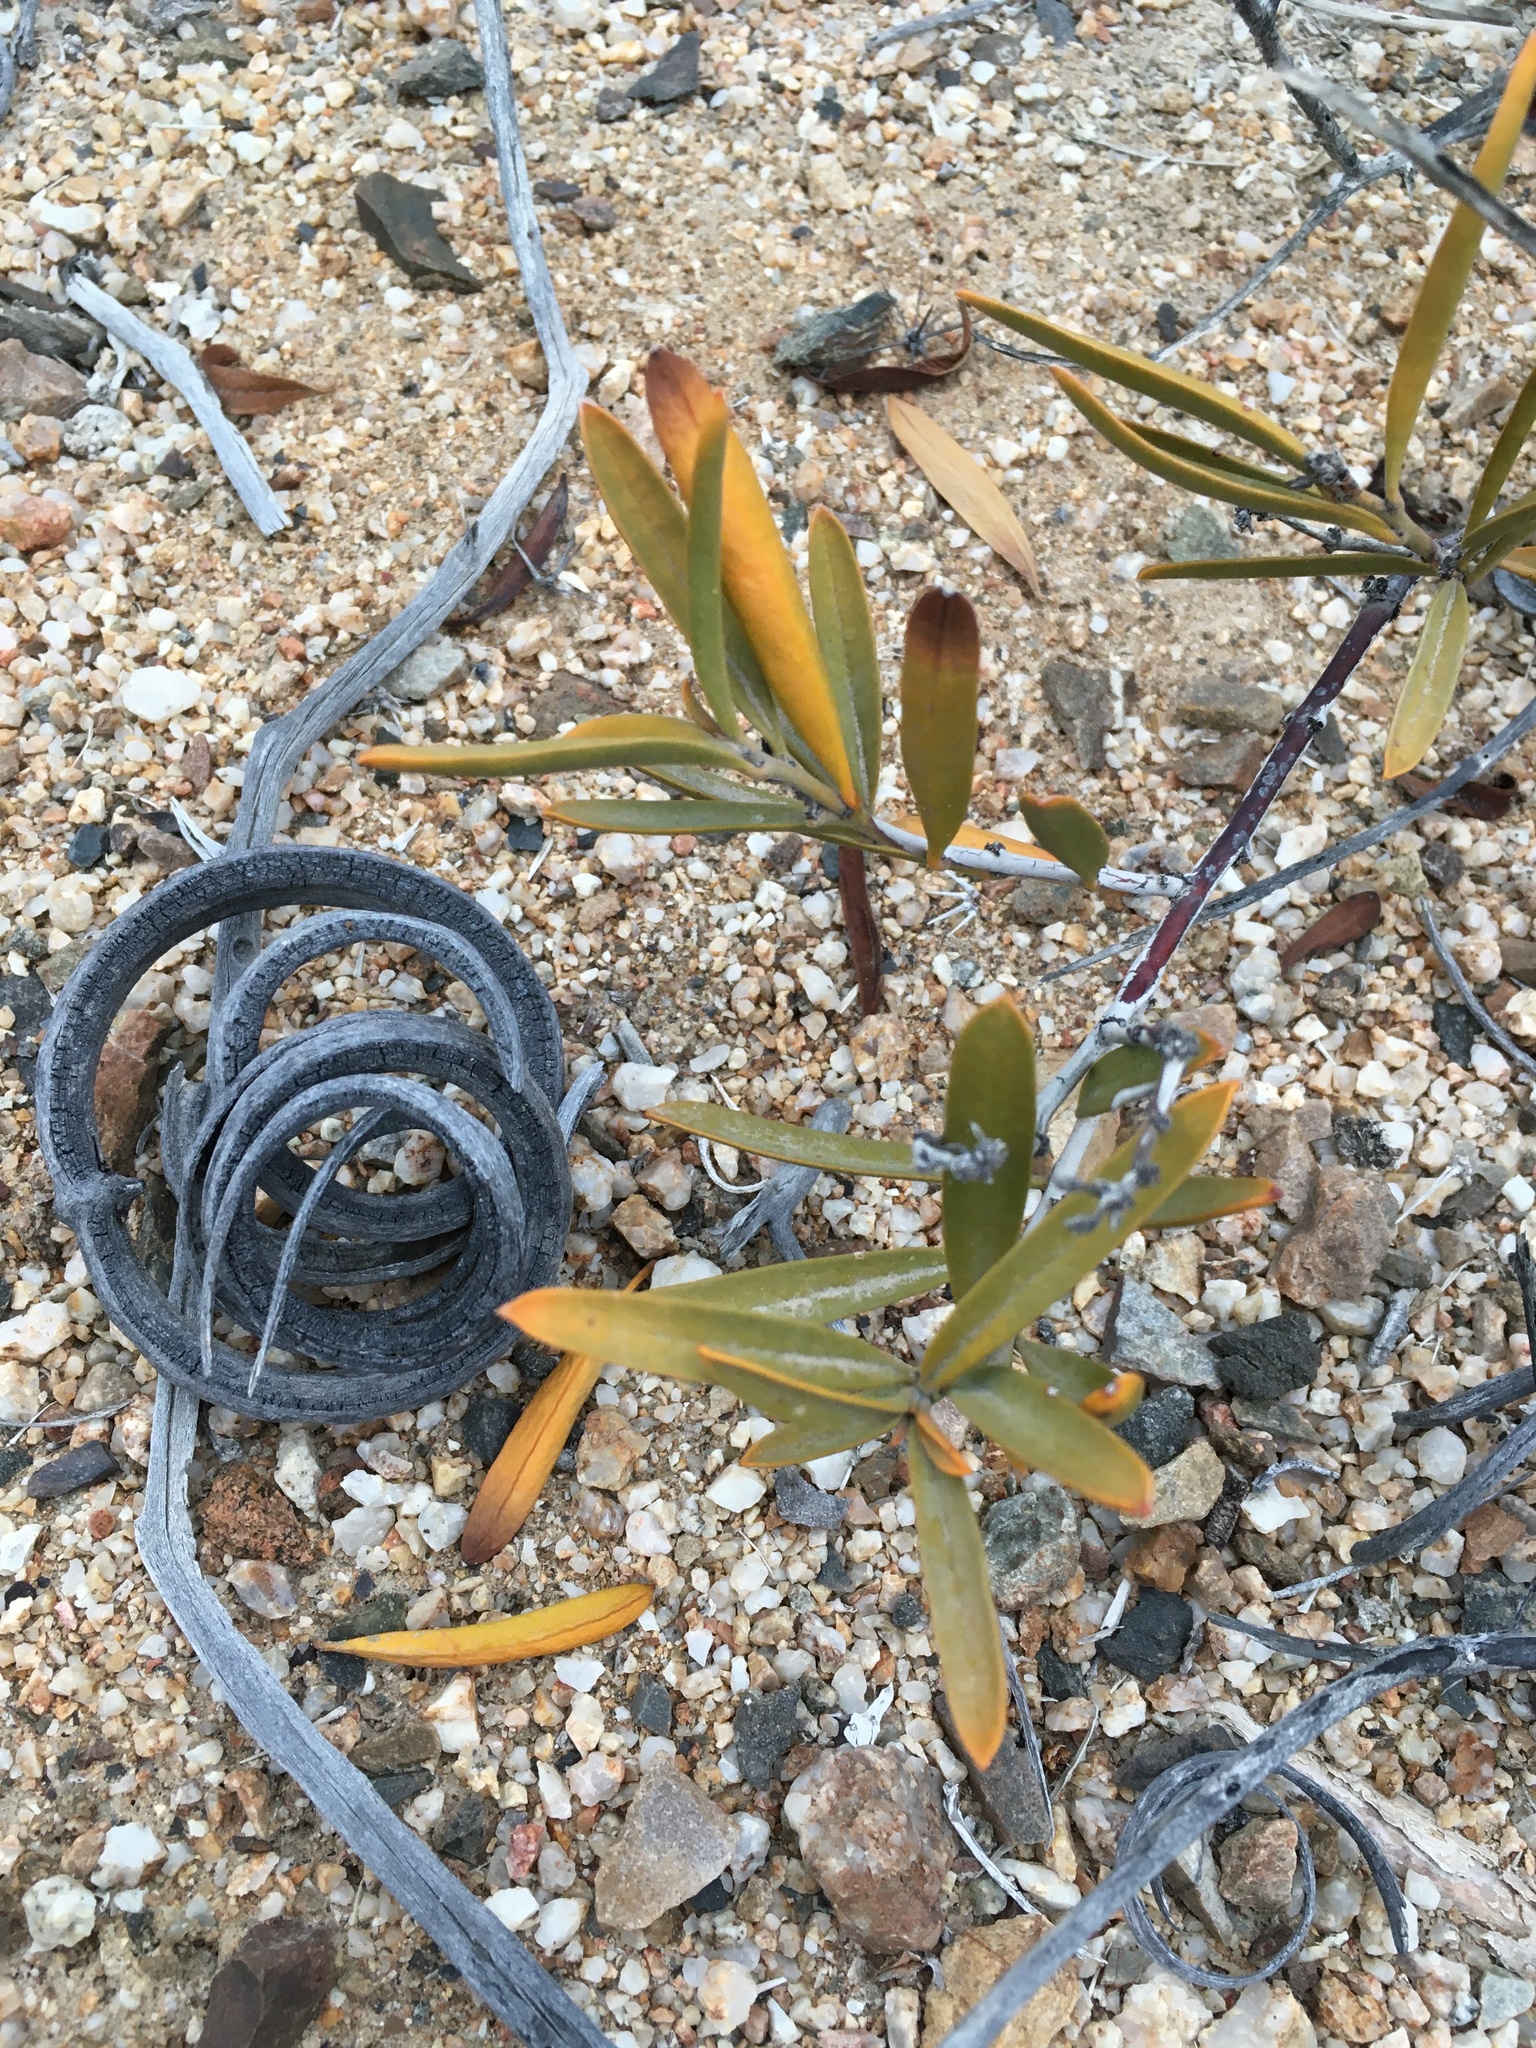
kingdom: Plantae
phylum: Tracheophyta
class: Magnoliopsida
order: Gentianales
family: Apocynaceae
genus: Skytanthus
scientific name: Skytanthus acutus
